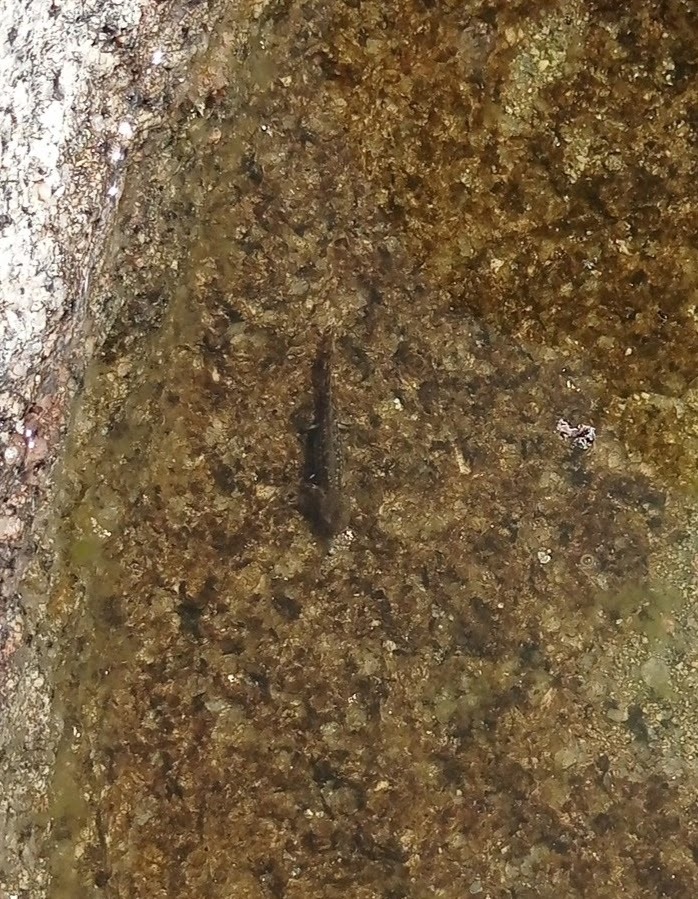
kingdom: Animalia
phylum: Chordata
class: Amphibia
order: Caudata
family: Salamandridae
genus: Salamandra
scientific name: Salamandra salamandra
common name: Fire salamander
